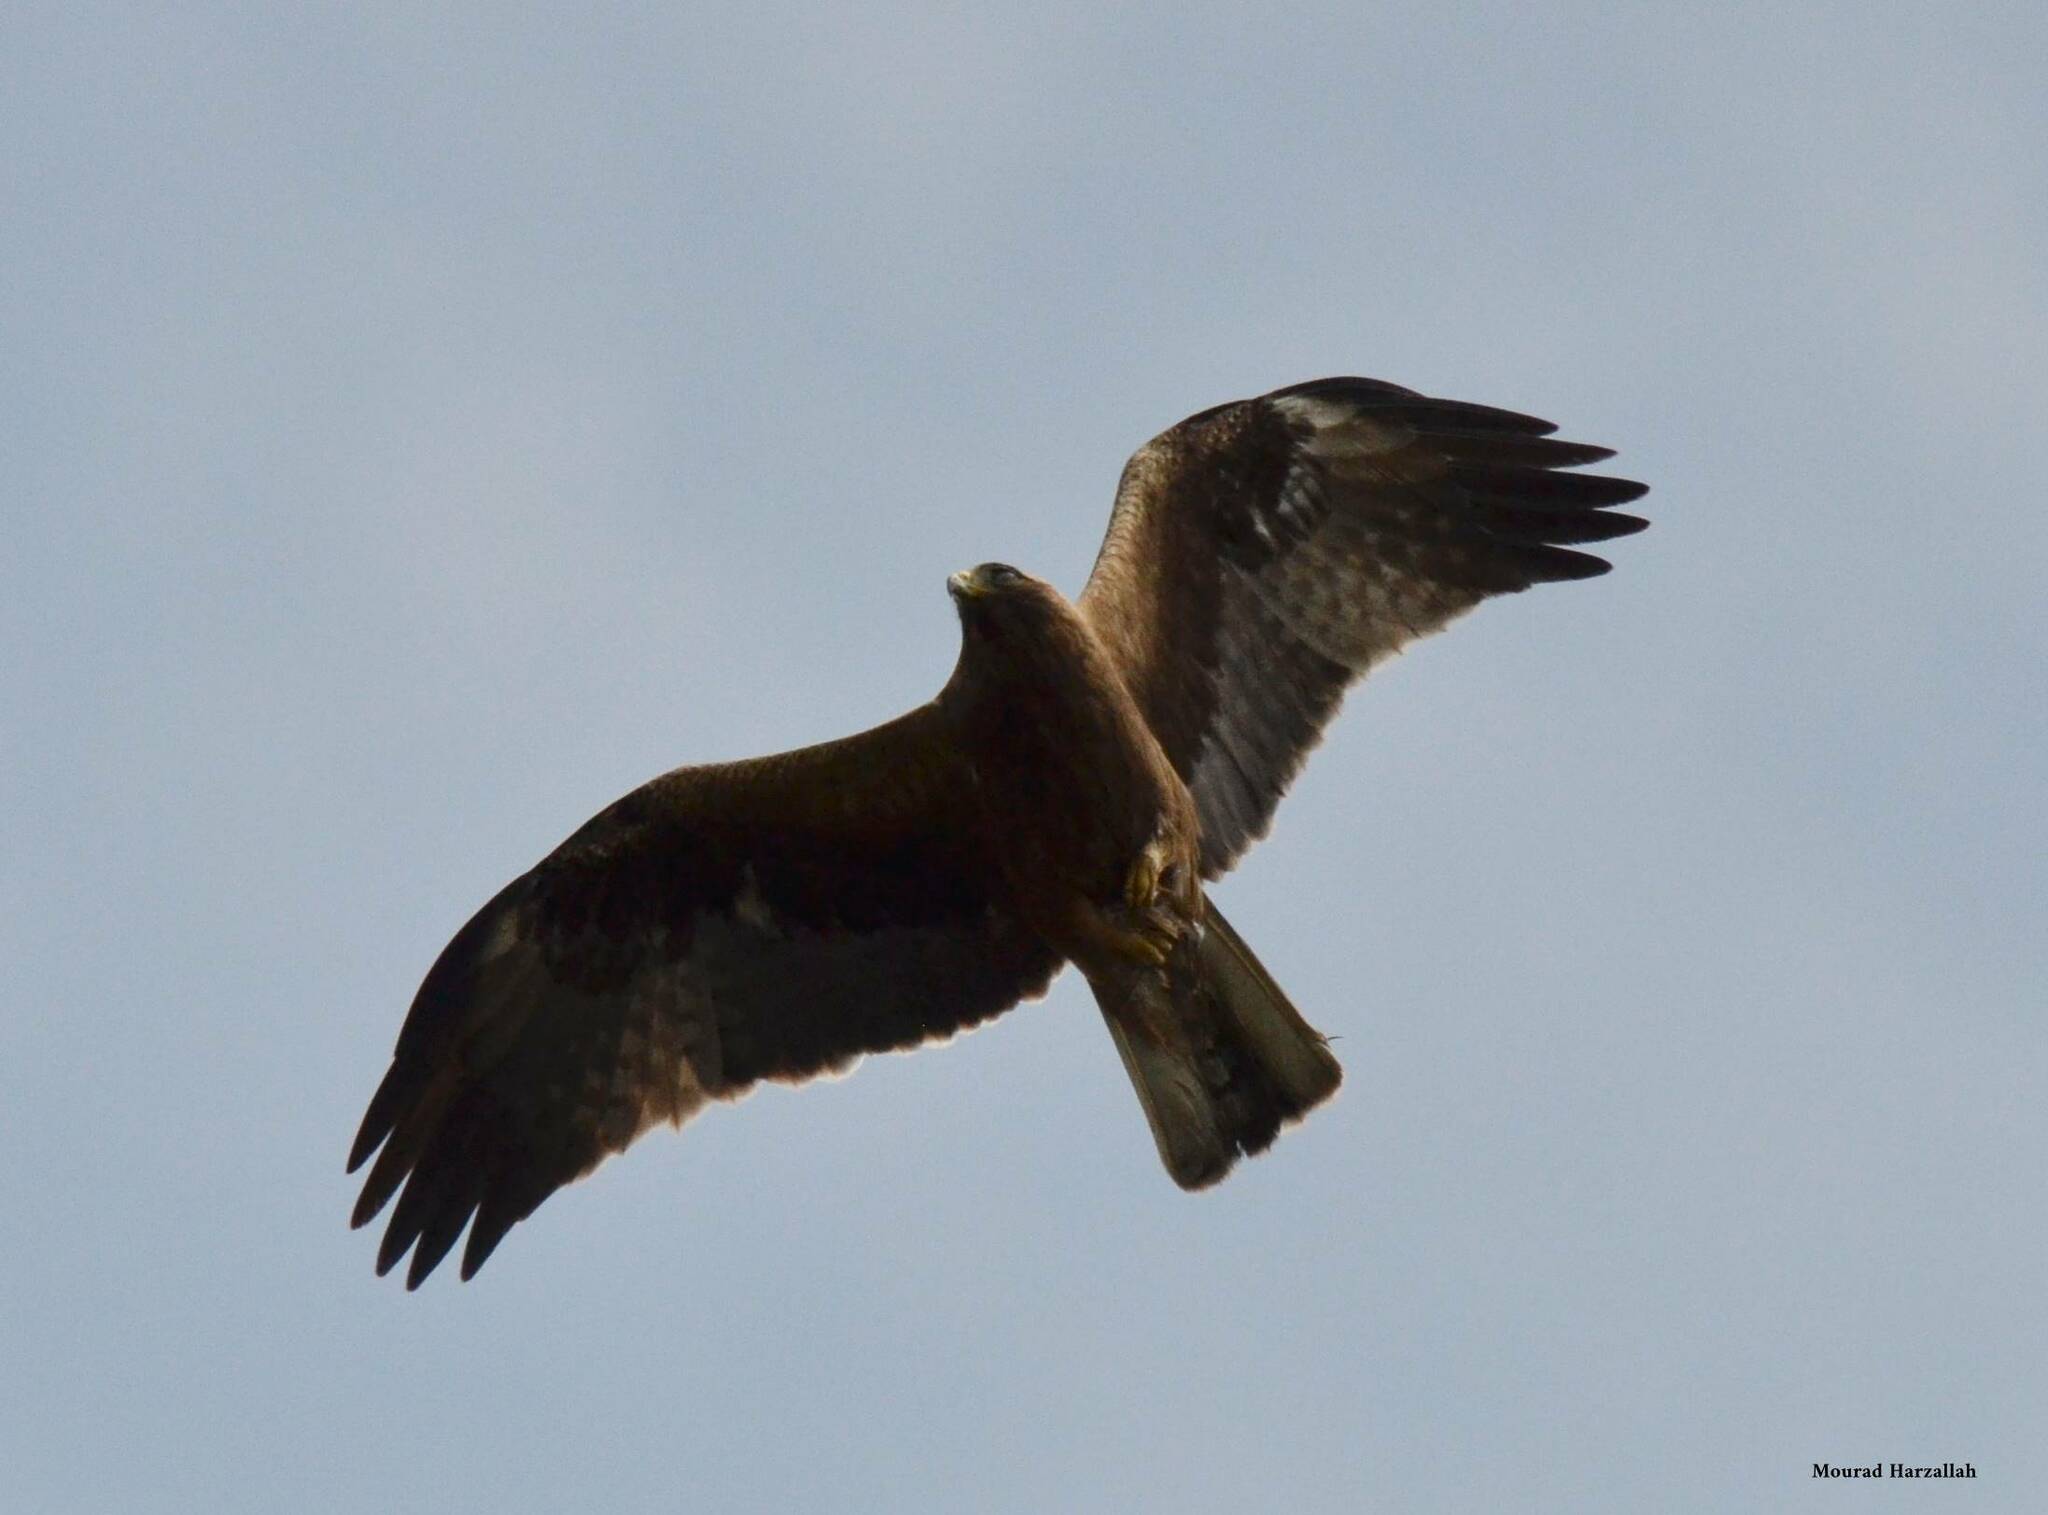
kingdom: Animalia
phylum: Chordata
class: Aves
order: Accipitriformes
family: Accipitridae
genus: Hieraaetus
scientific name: Hieraaetus pennatus
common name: Booted eagle
